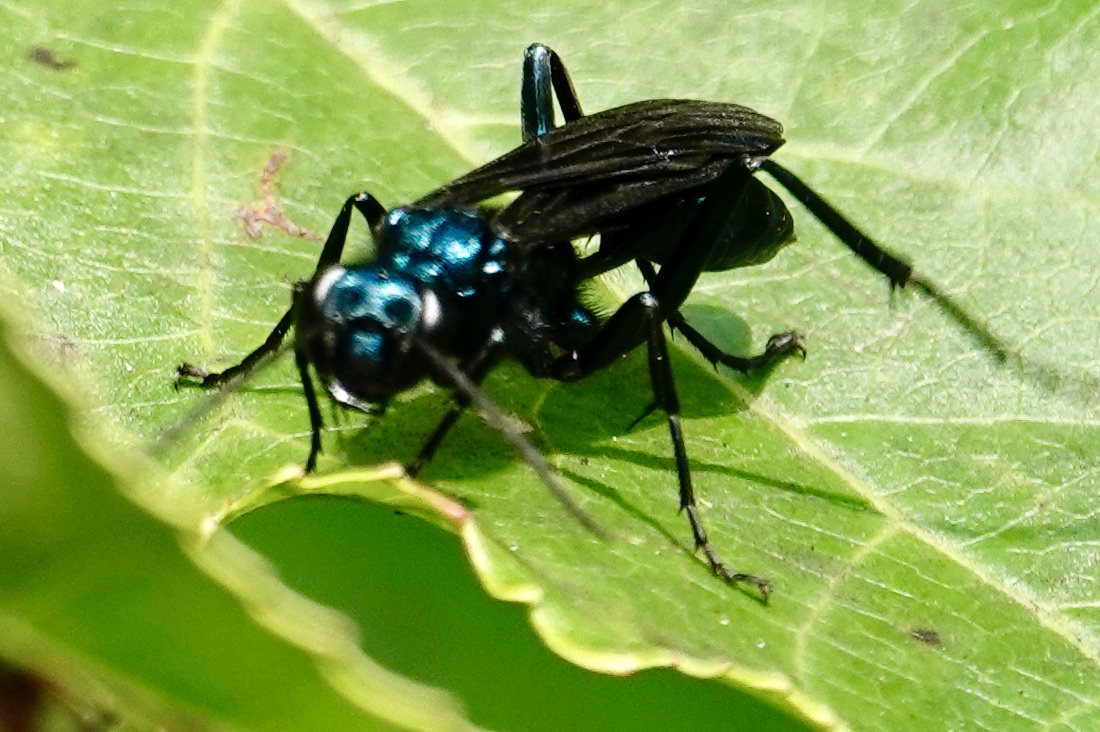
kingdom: Animalia
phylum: Arthropoda
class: Insecta
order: Hymenoptera
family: Sphecidae
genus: Chalybion
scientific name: Chalybion californicum
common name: Mud dauber
